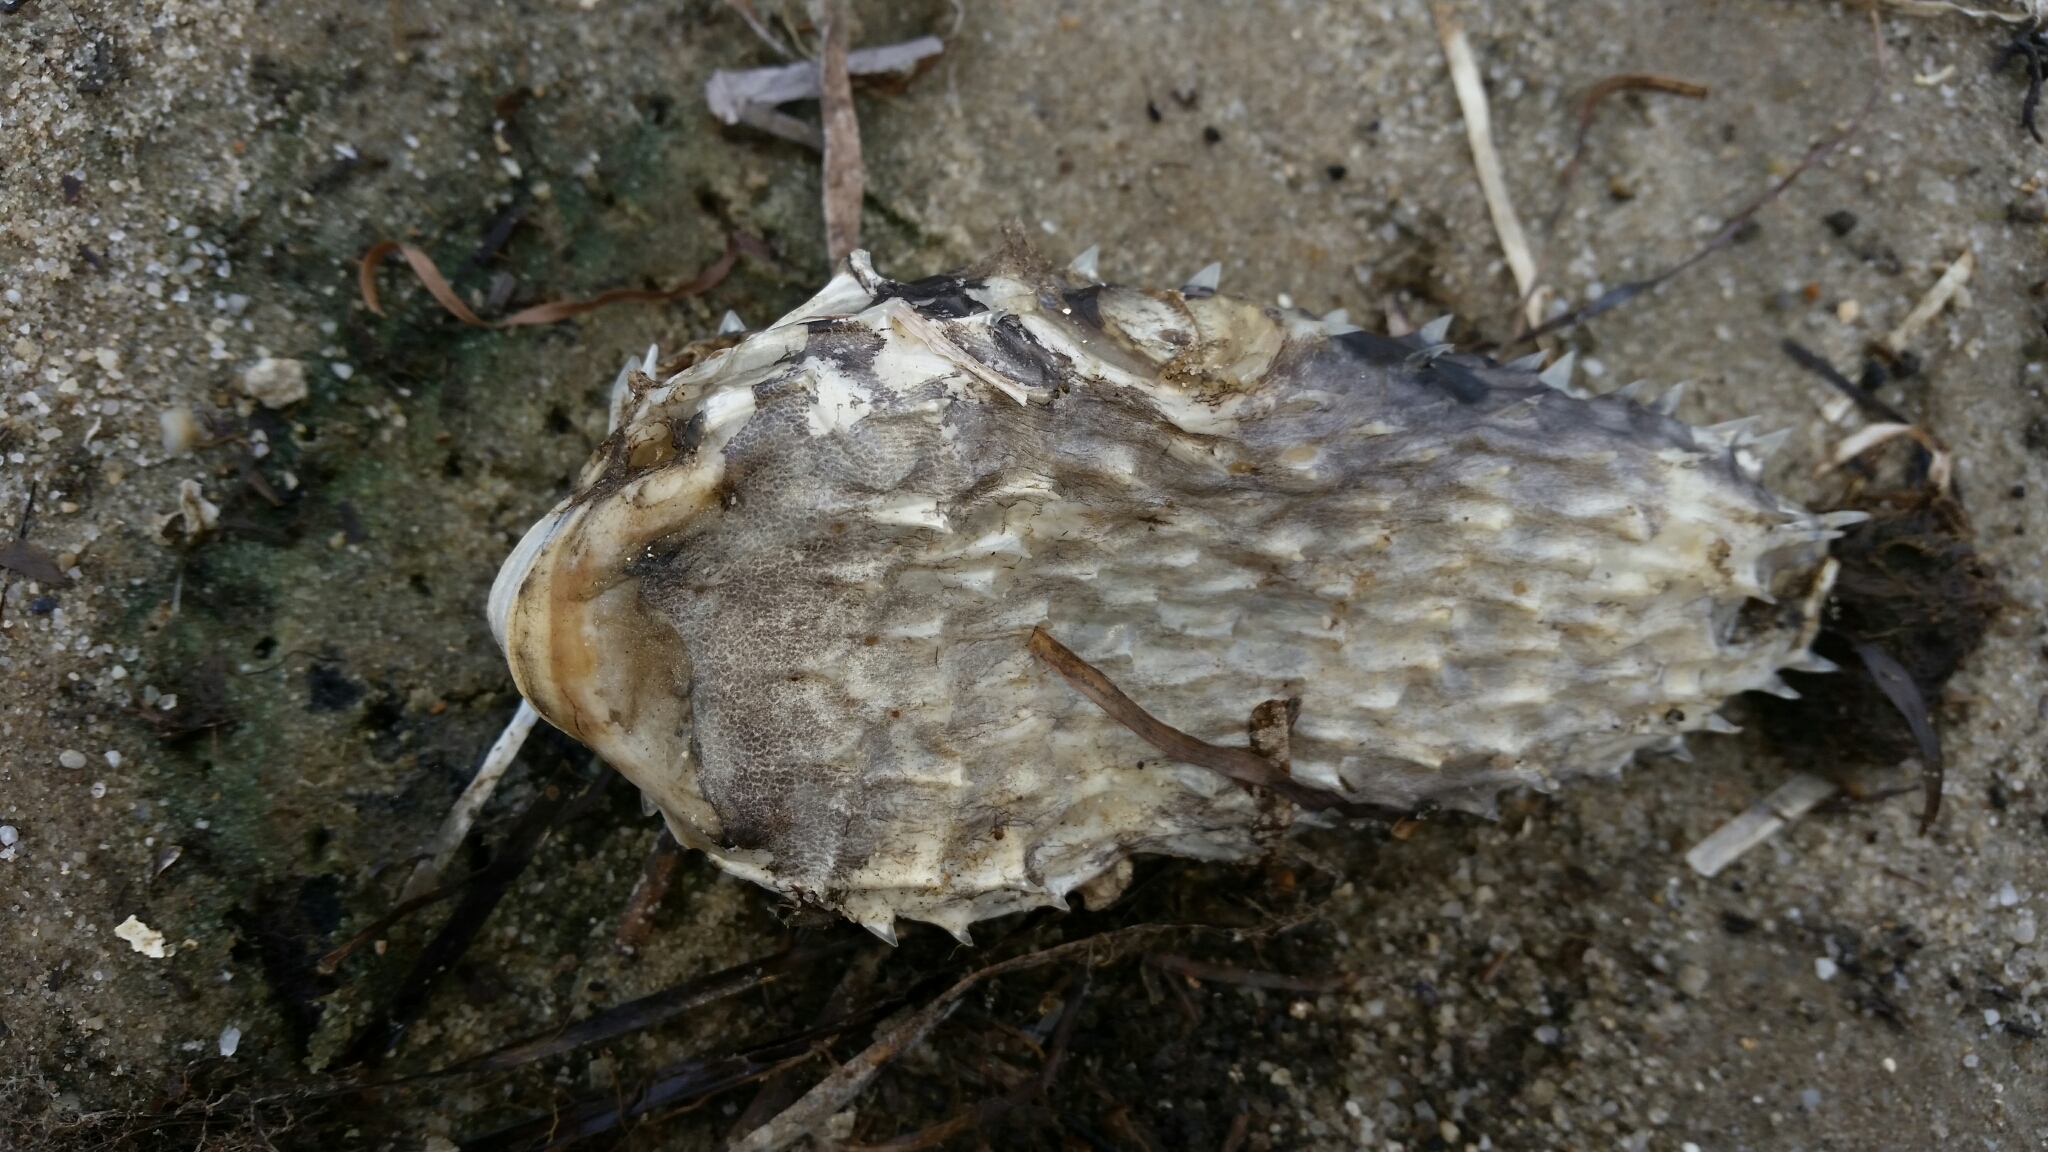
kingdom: Animalia
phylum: Chordata
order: Tetraodontiformes
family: Diodontidae
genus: Chilomycterus
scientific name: Chilomycterus schoepfii
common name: Striped burrfish
